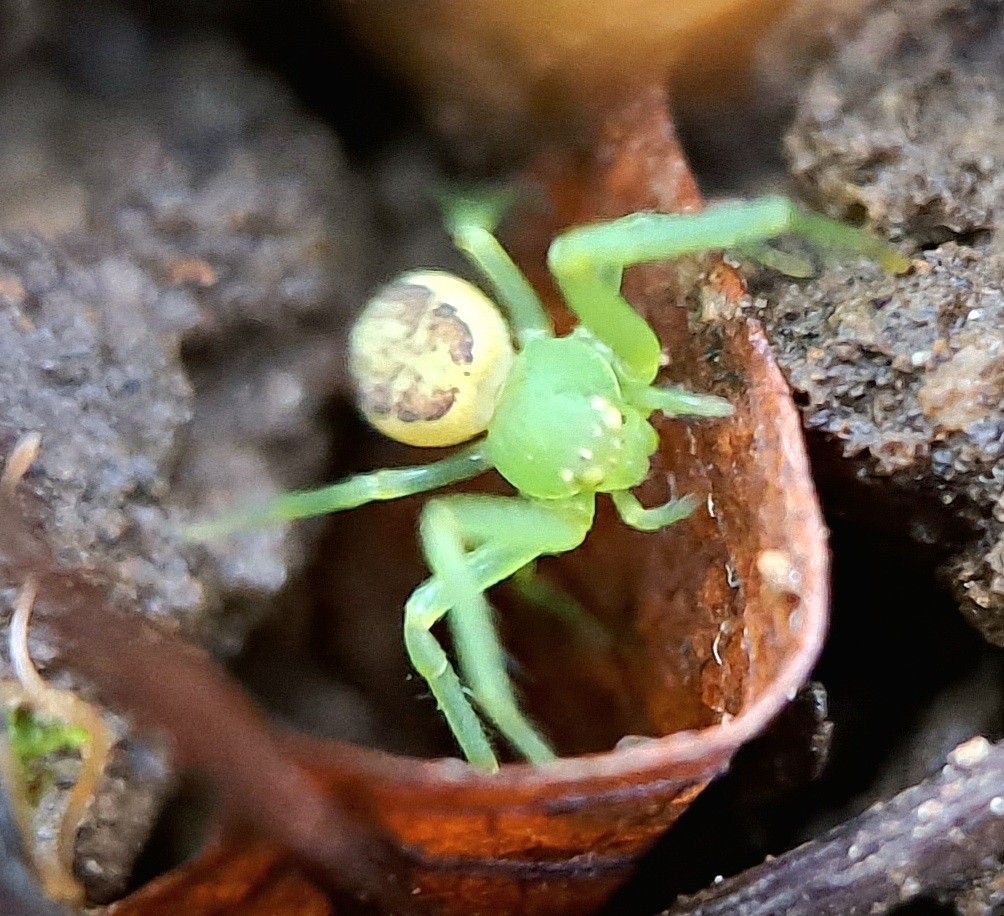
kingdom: Animalia
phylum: Arthropoda
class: Arachnida
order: Araneae
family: Thomisidae
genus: Diaea
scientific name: Diaea dorsata
